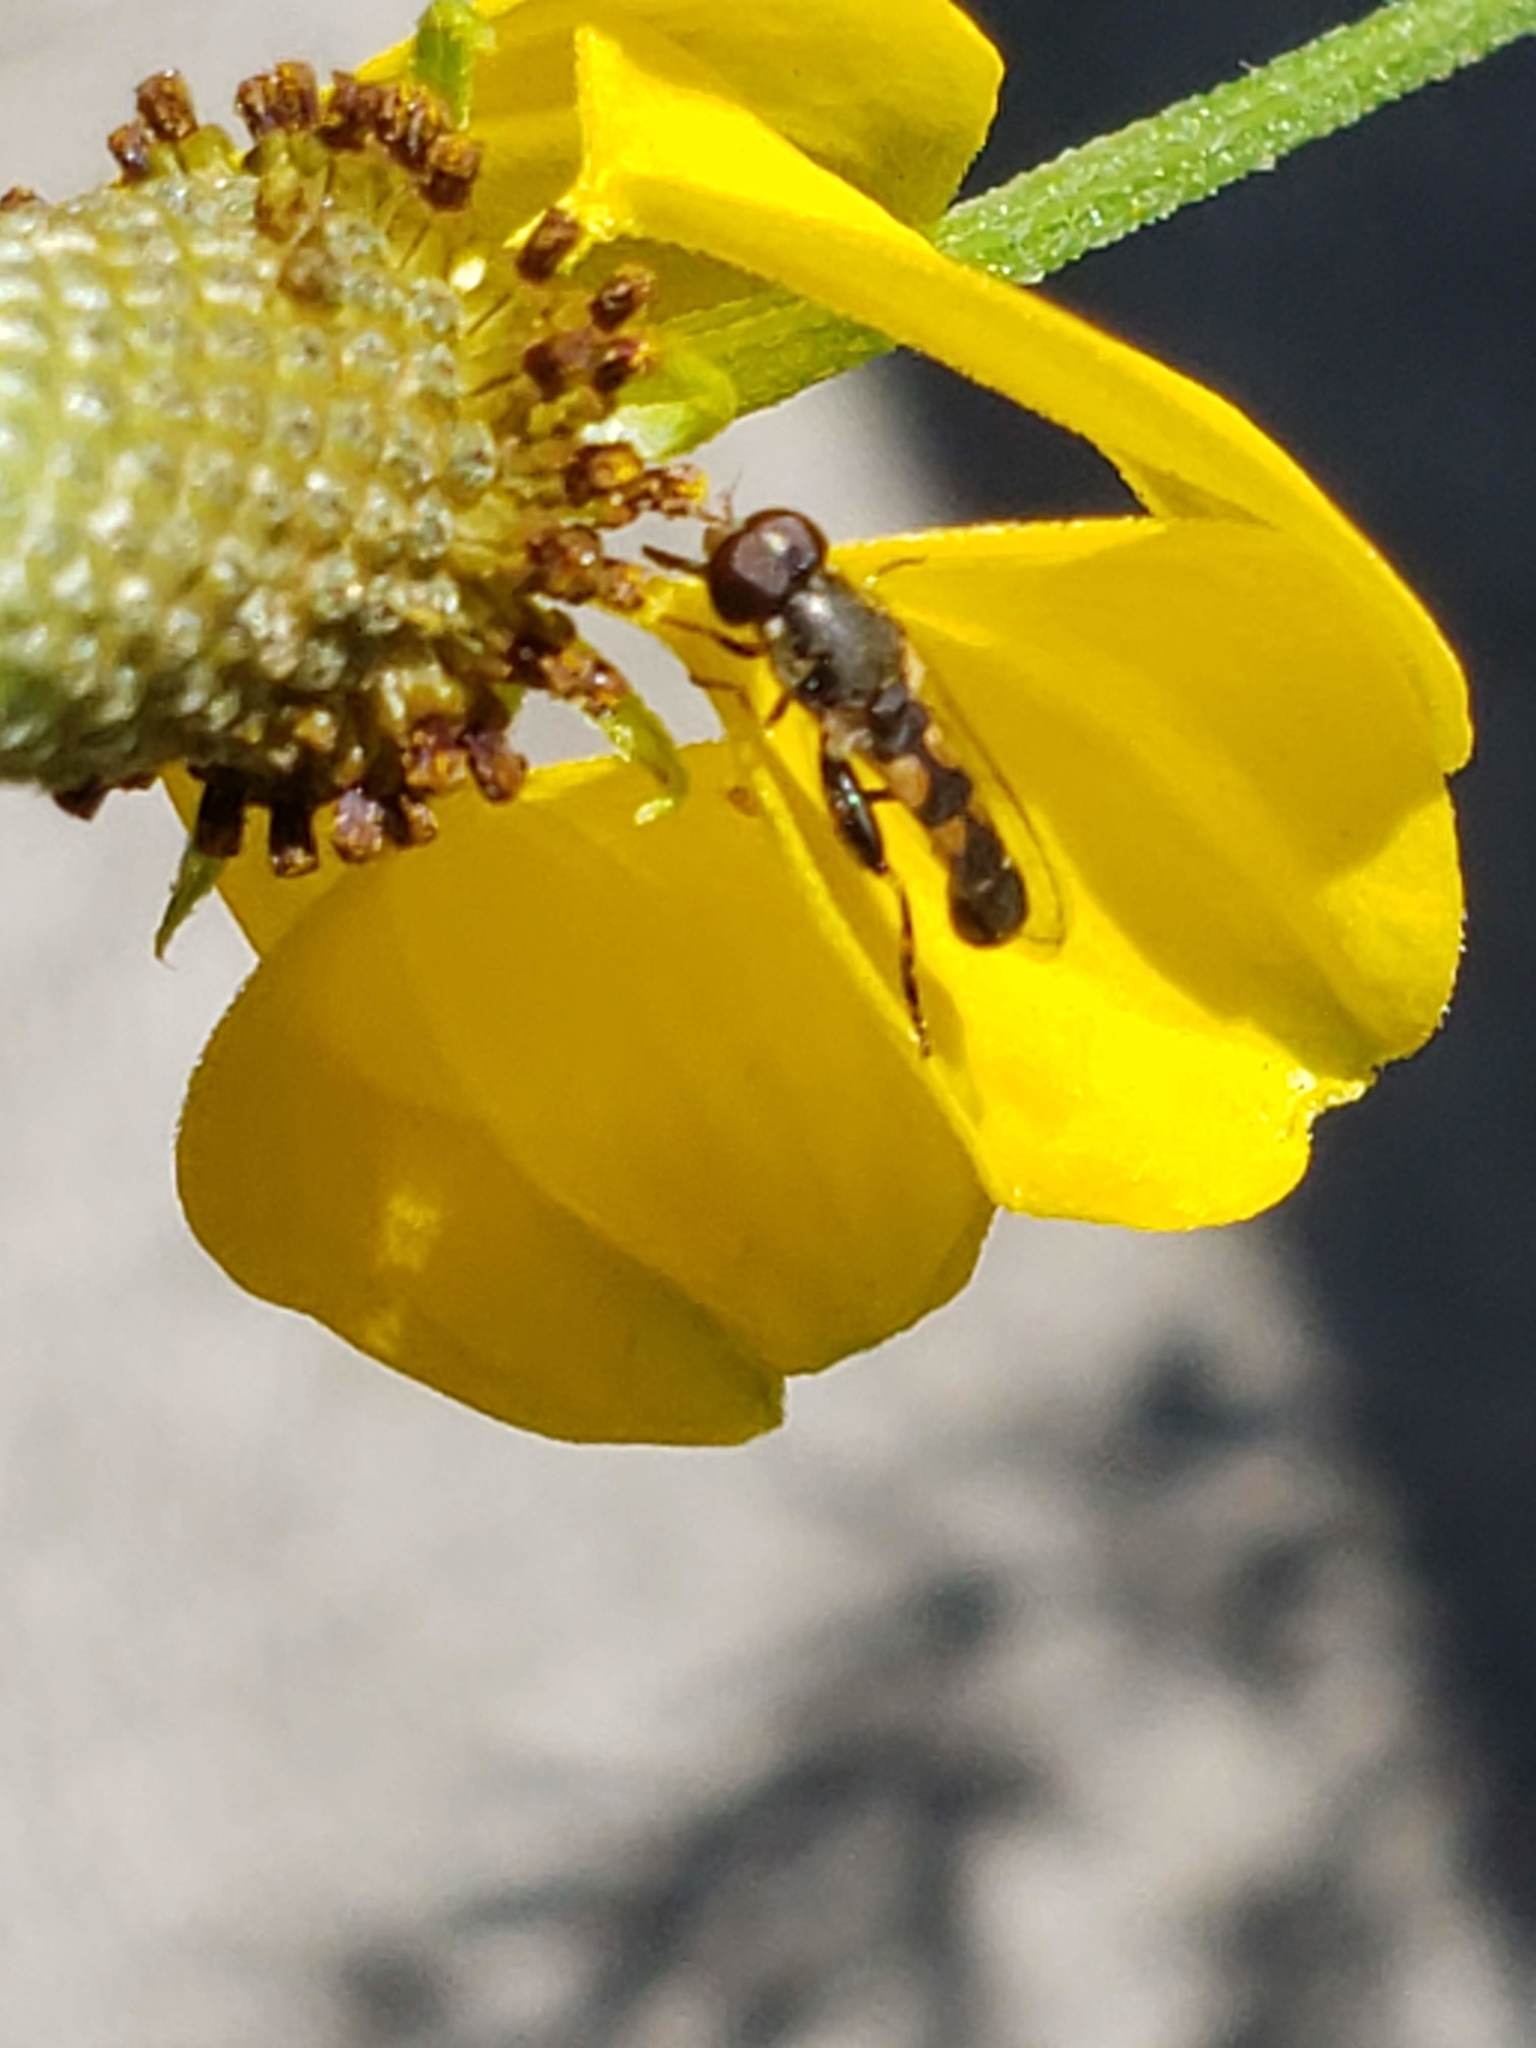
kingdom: Animalia
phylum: Arthropoda
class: Insecta
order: Diptera
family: Syrphidae
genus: Syritta
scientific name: Syritta pipiens
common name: Hover fly
